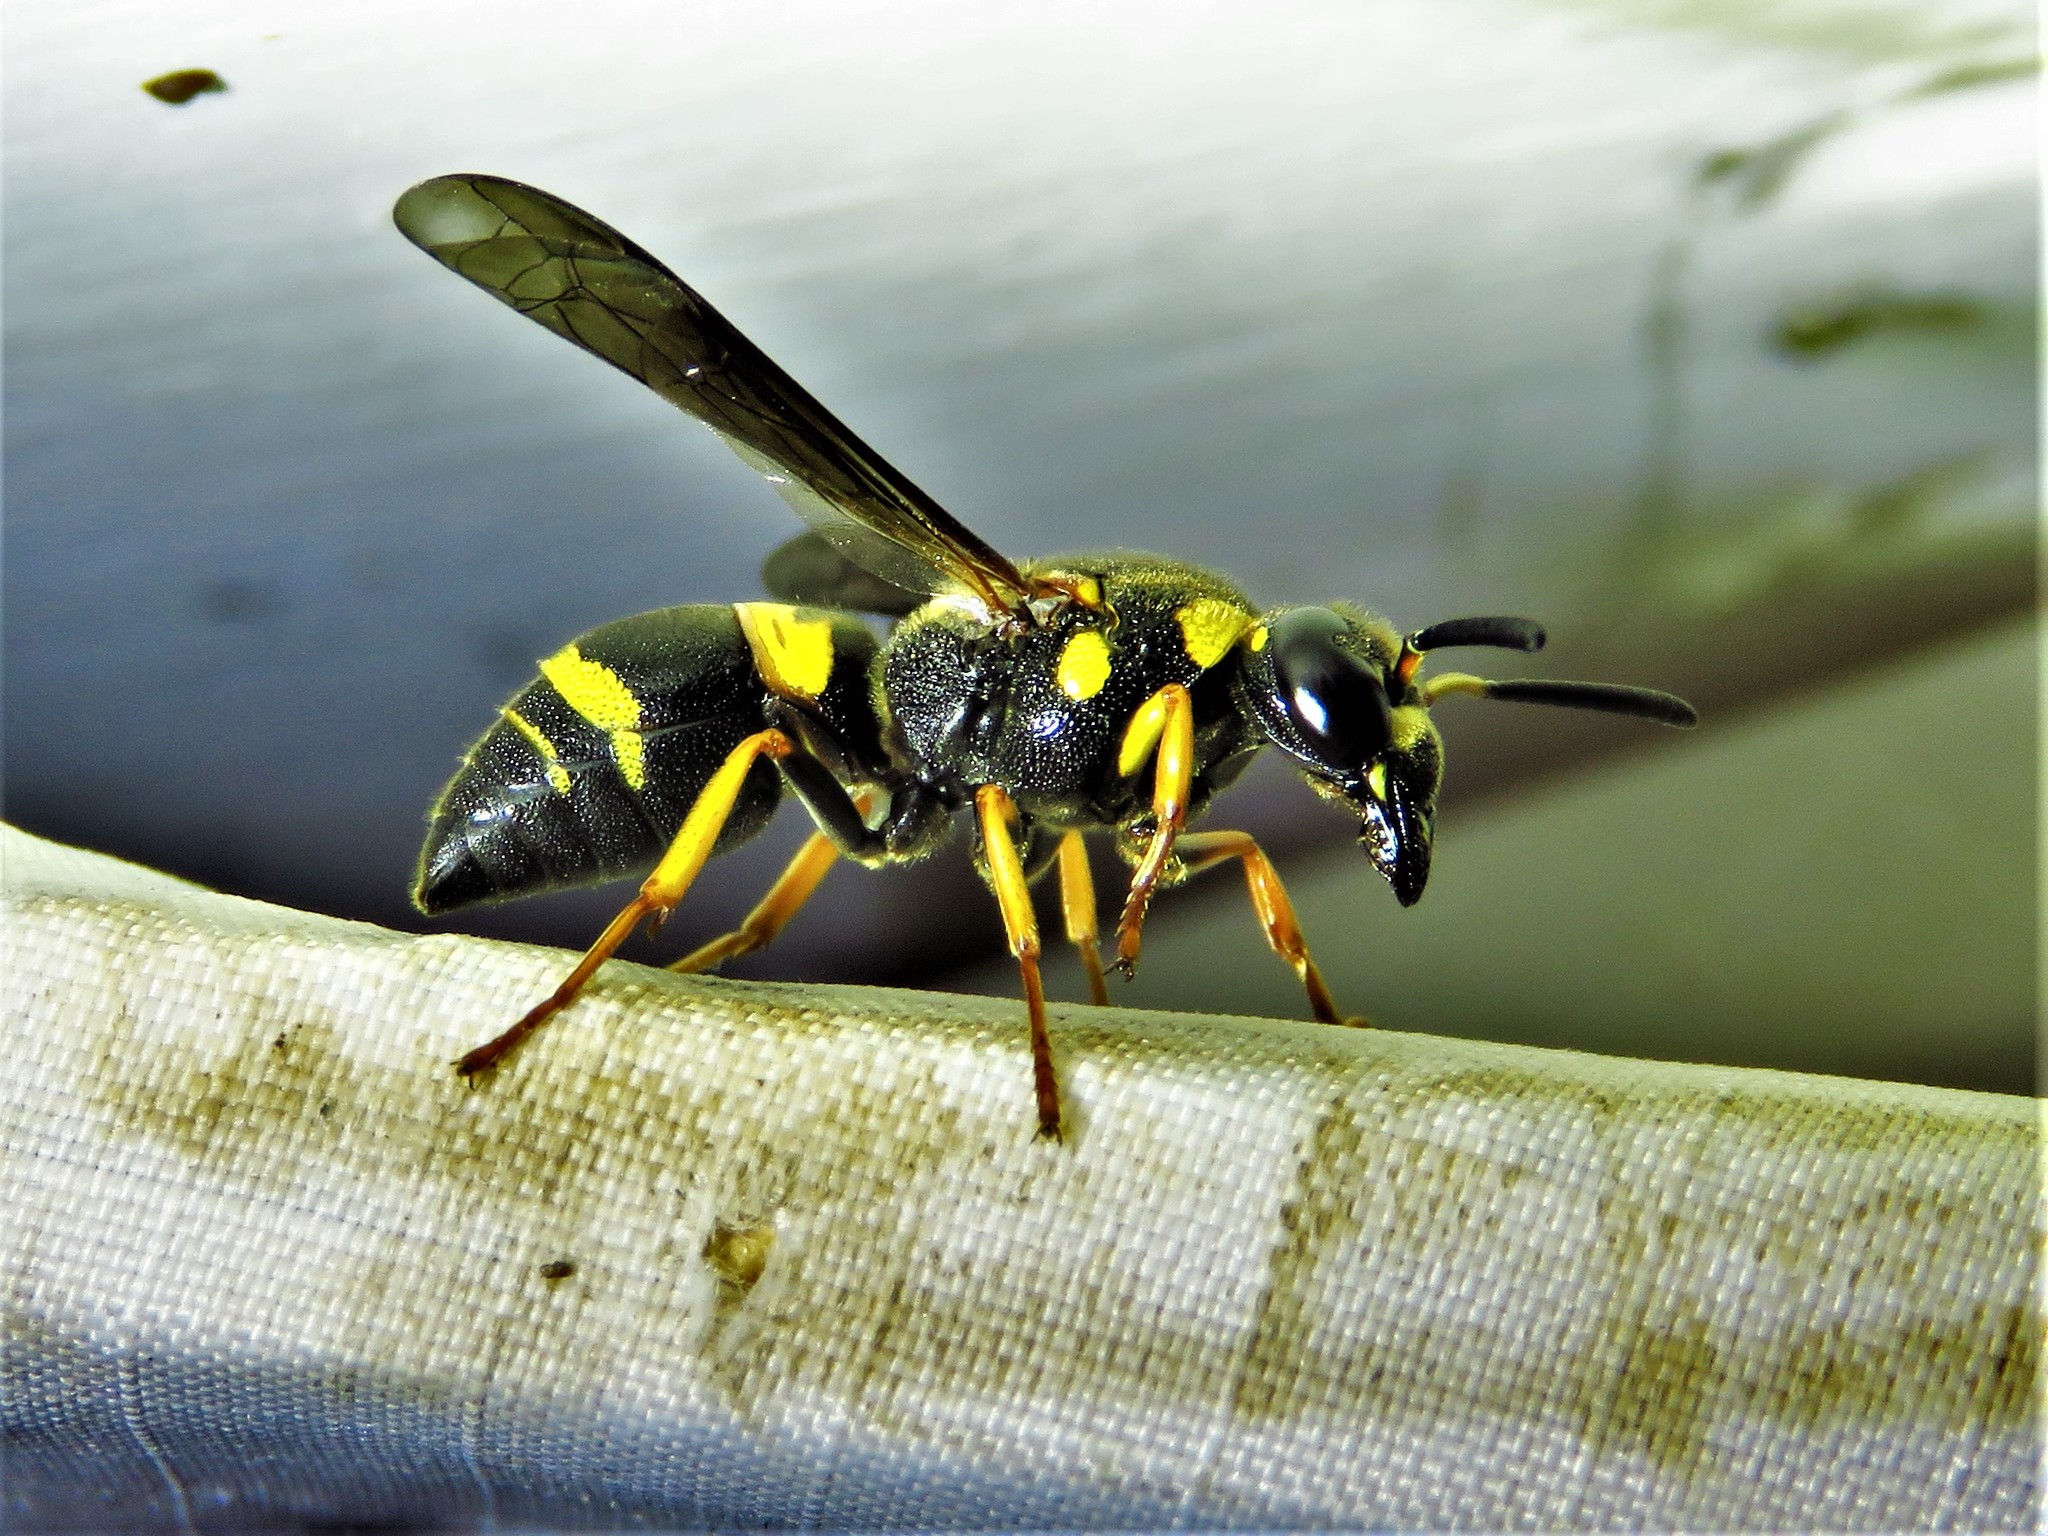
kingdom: Animalia
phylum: Arthropoda
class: Insecta
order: Hymenoptera
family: Eumenidae
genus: Euodynerus
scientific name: Euodynerus foraminatus
